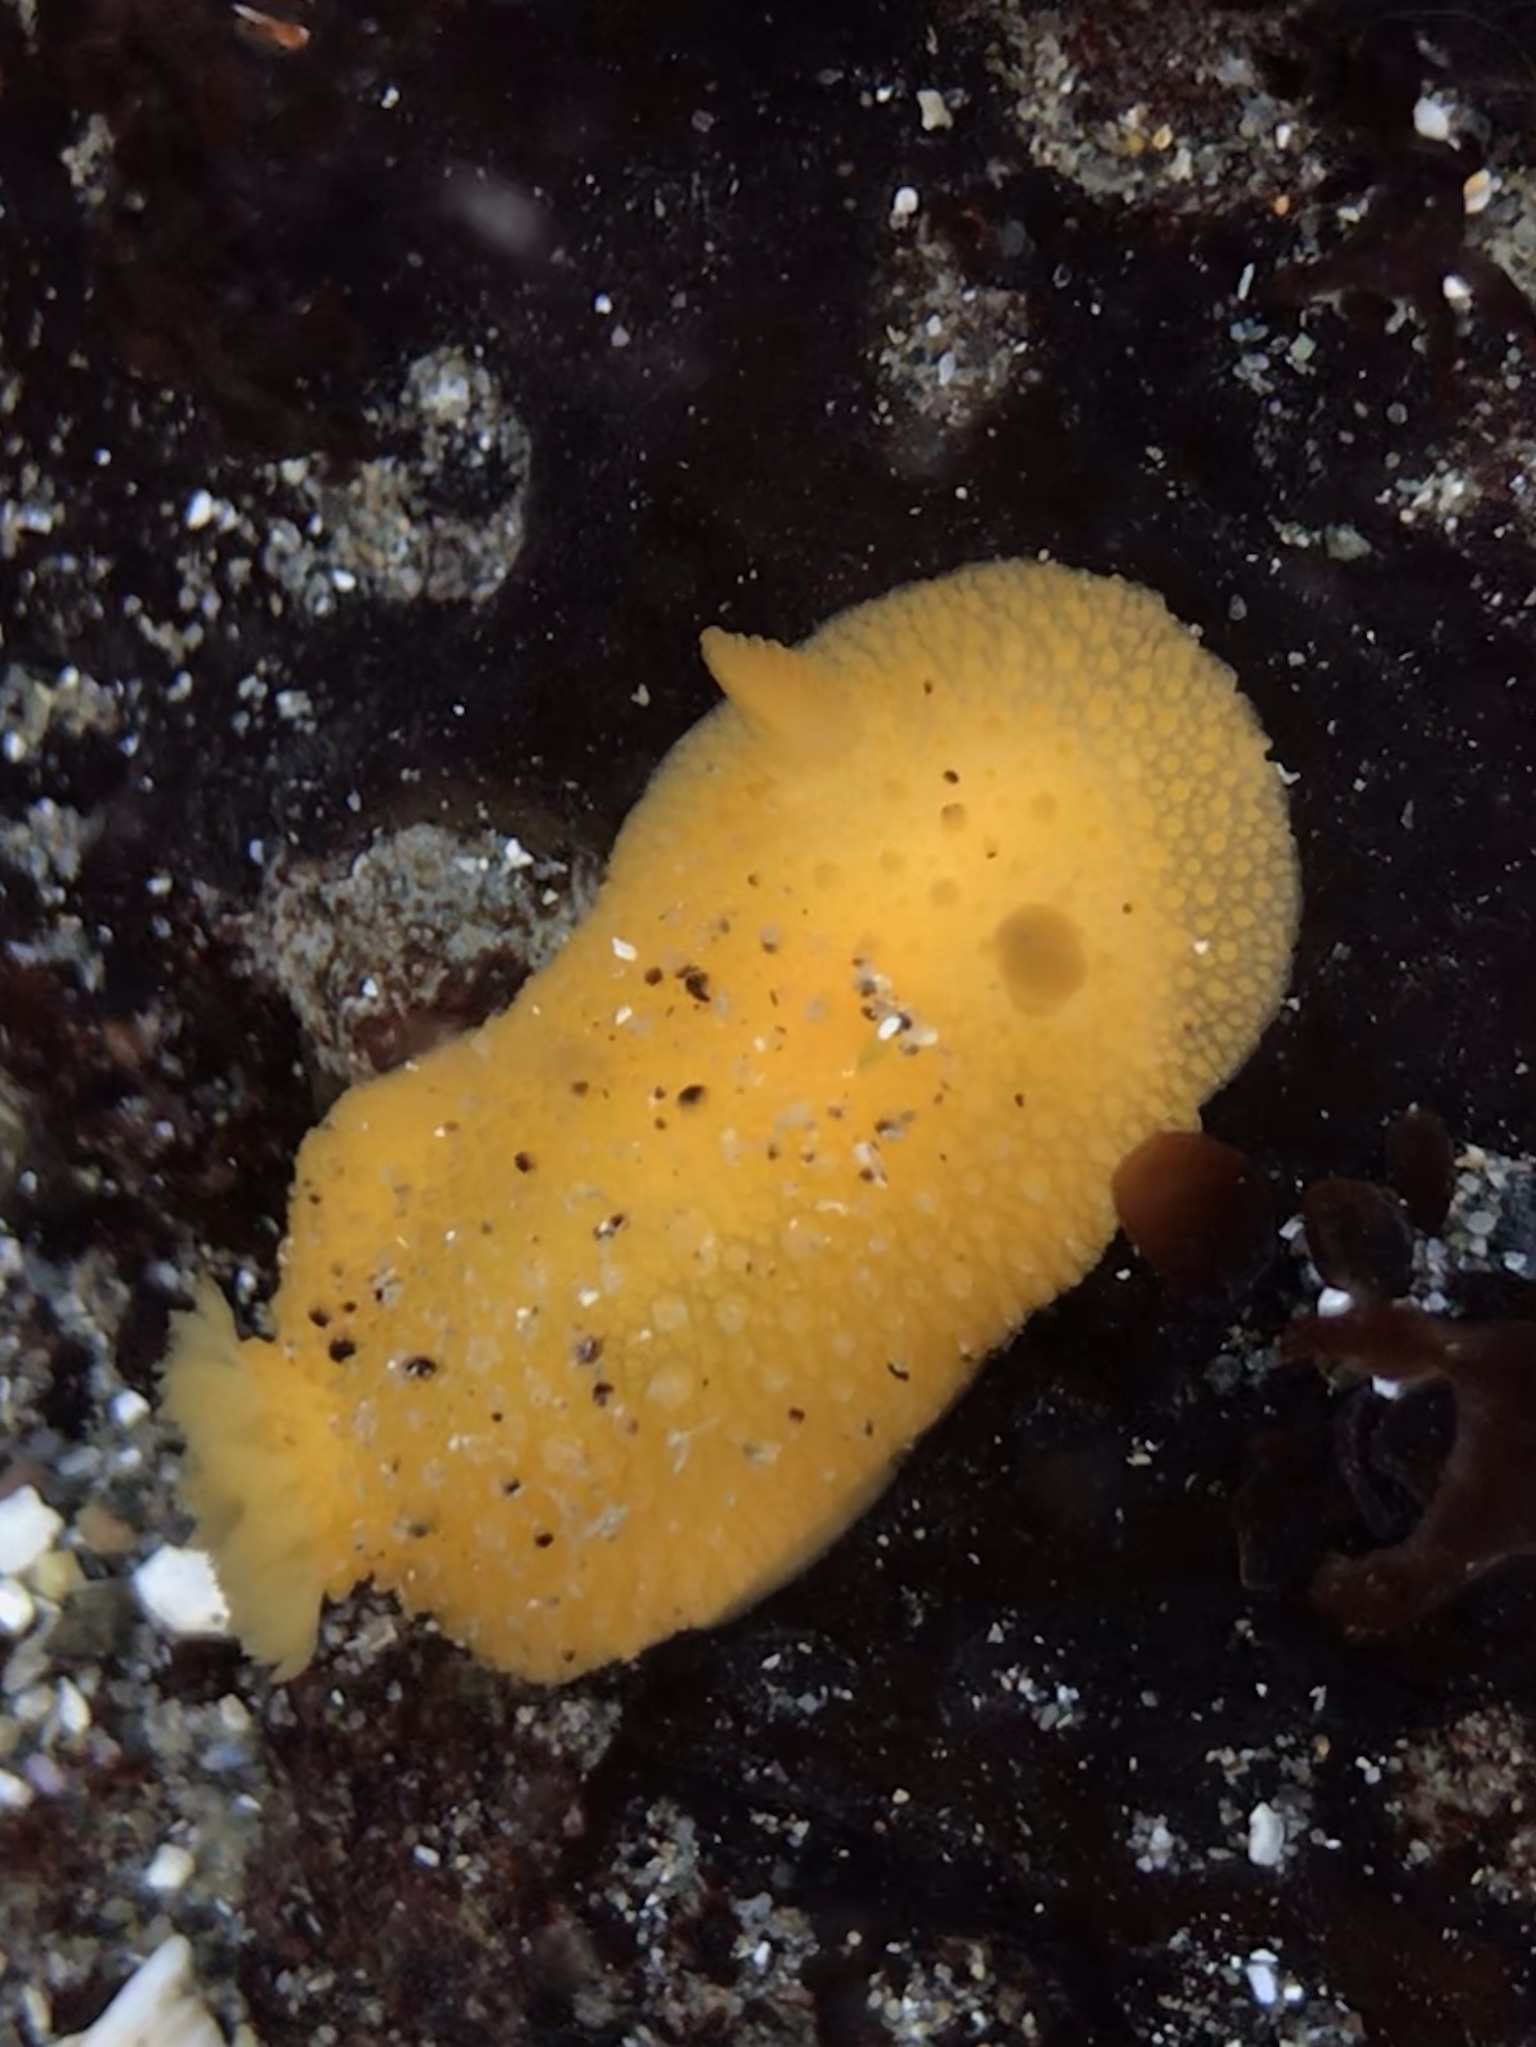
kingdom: Animalia
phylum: Mollusca
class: Gastropoda
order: Nudibranchia
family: Dorididae
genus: Doris
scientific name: Doris montereyensis
